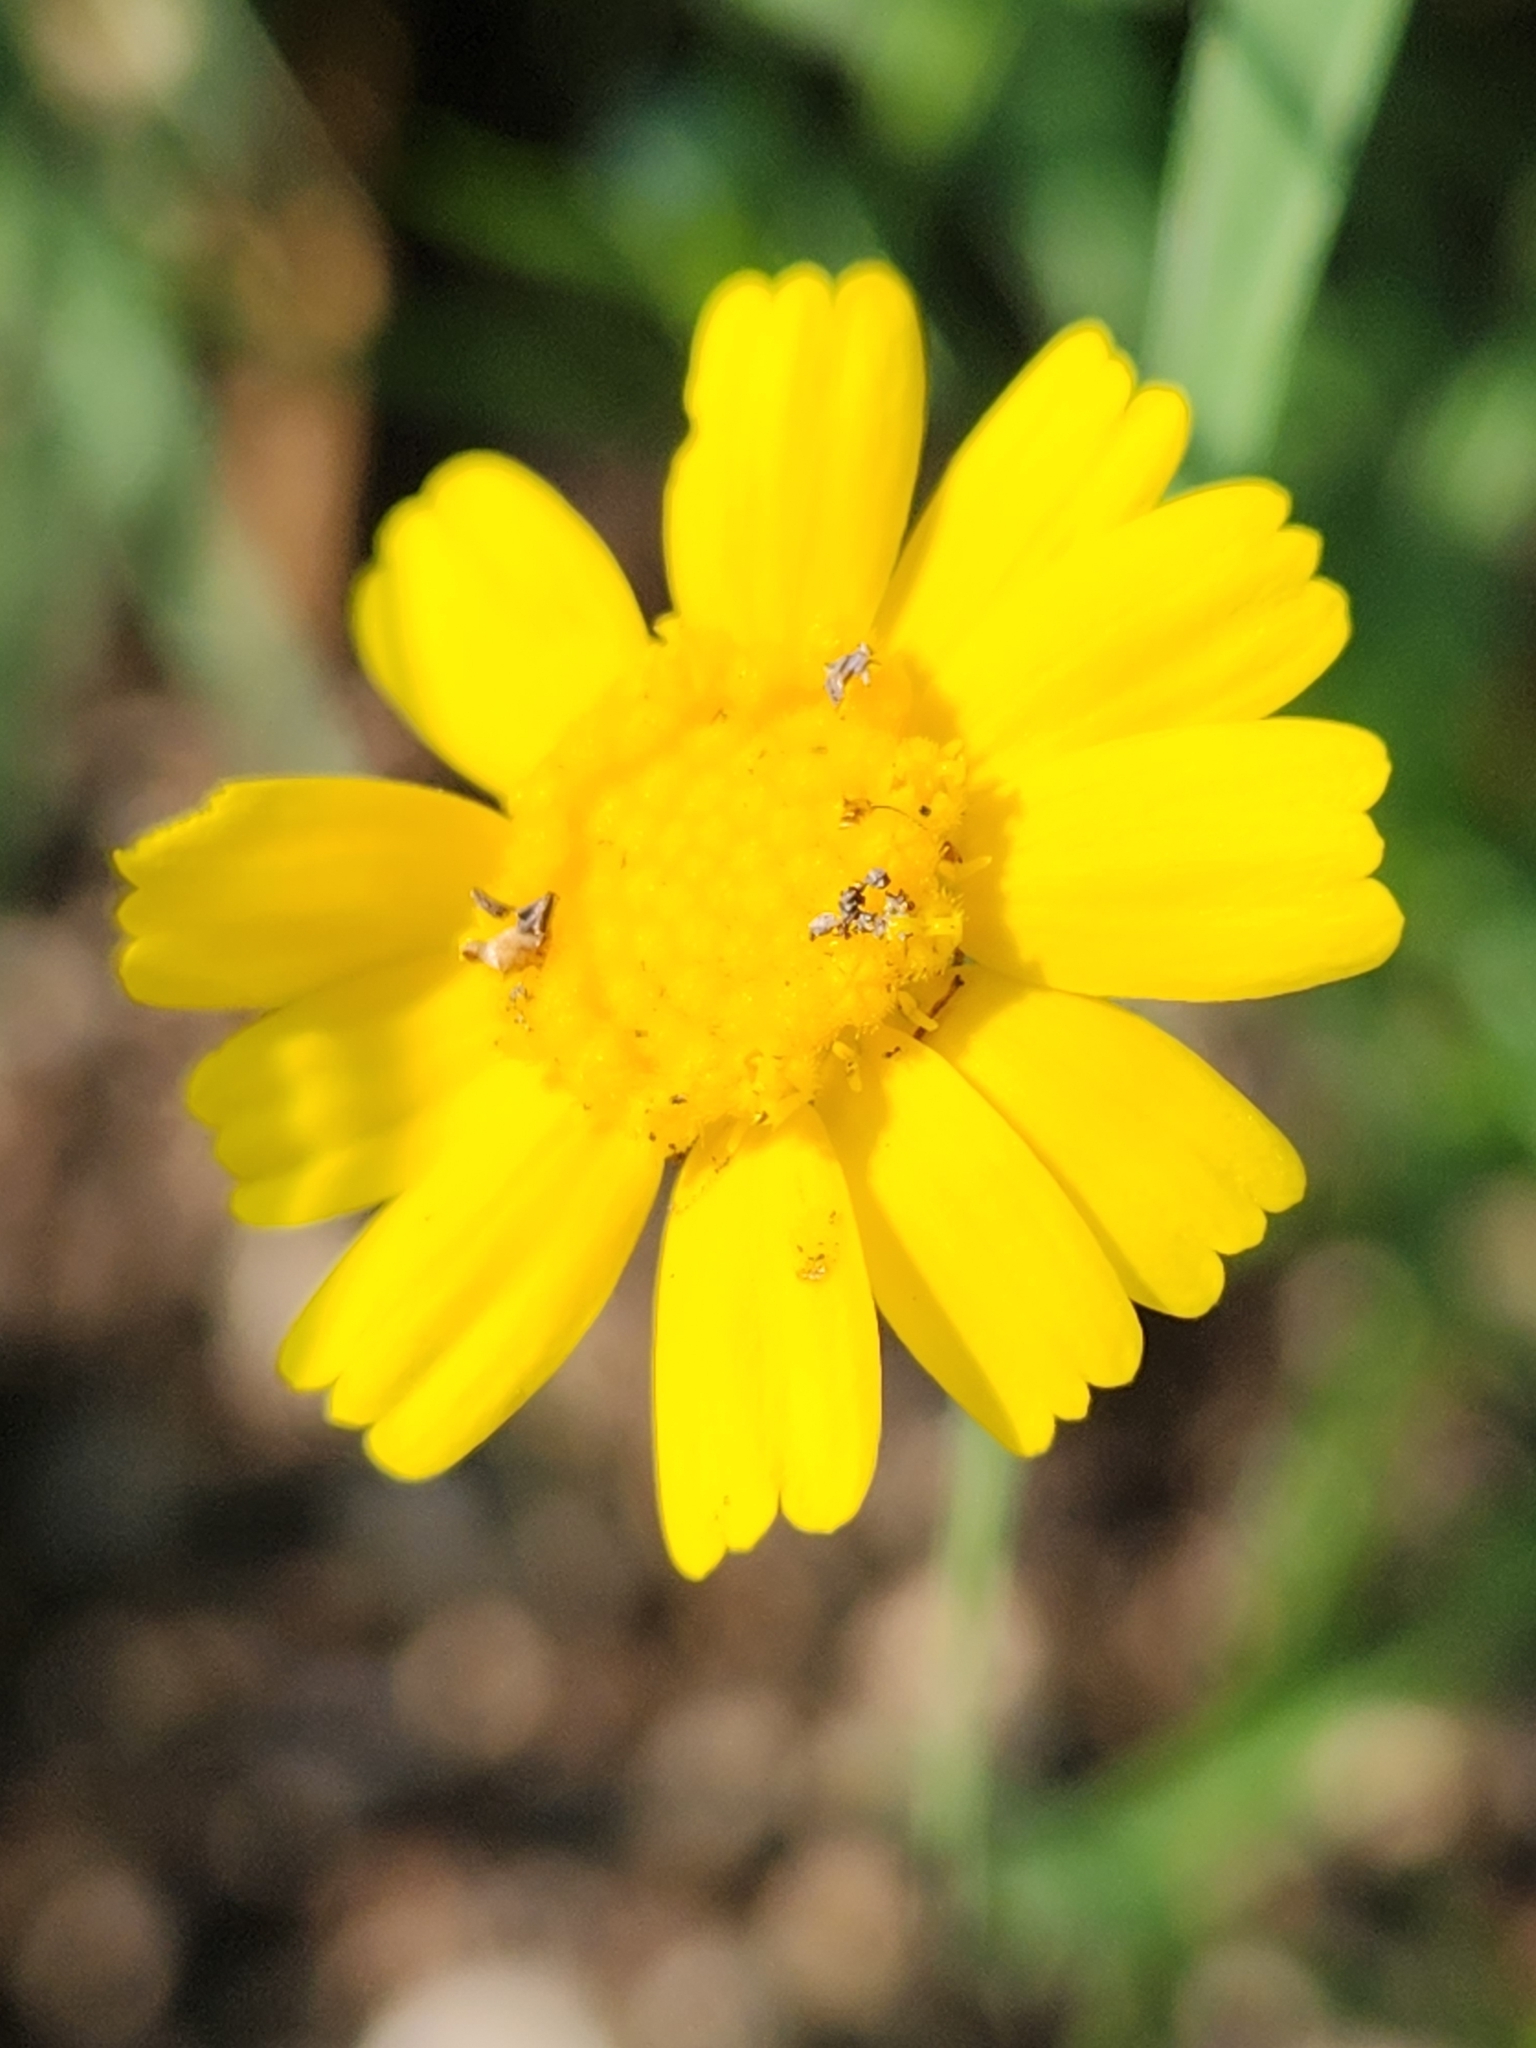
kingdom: Plantae
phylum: Tracheophyta
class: Magnoliopsida
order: Asterales
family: Asteraceae
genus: Tetraneuris
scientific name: Tetraneuris linearifolia
